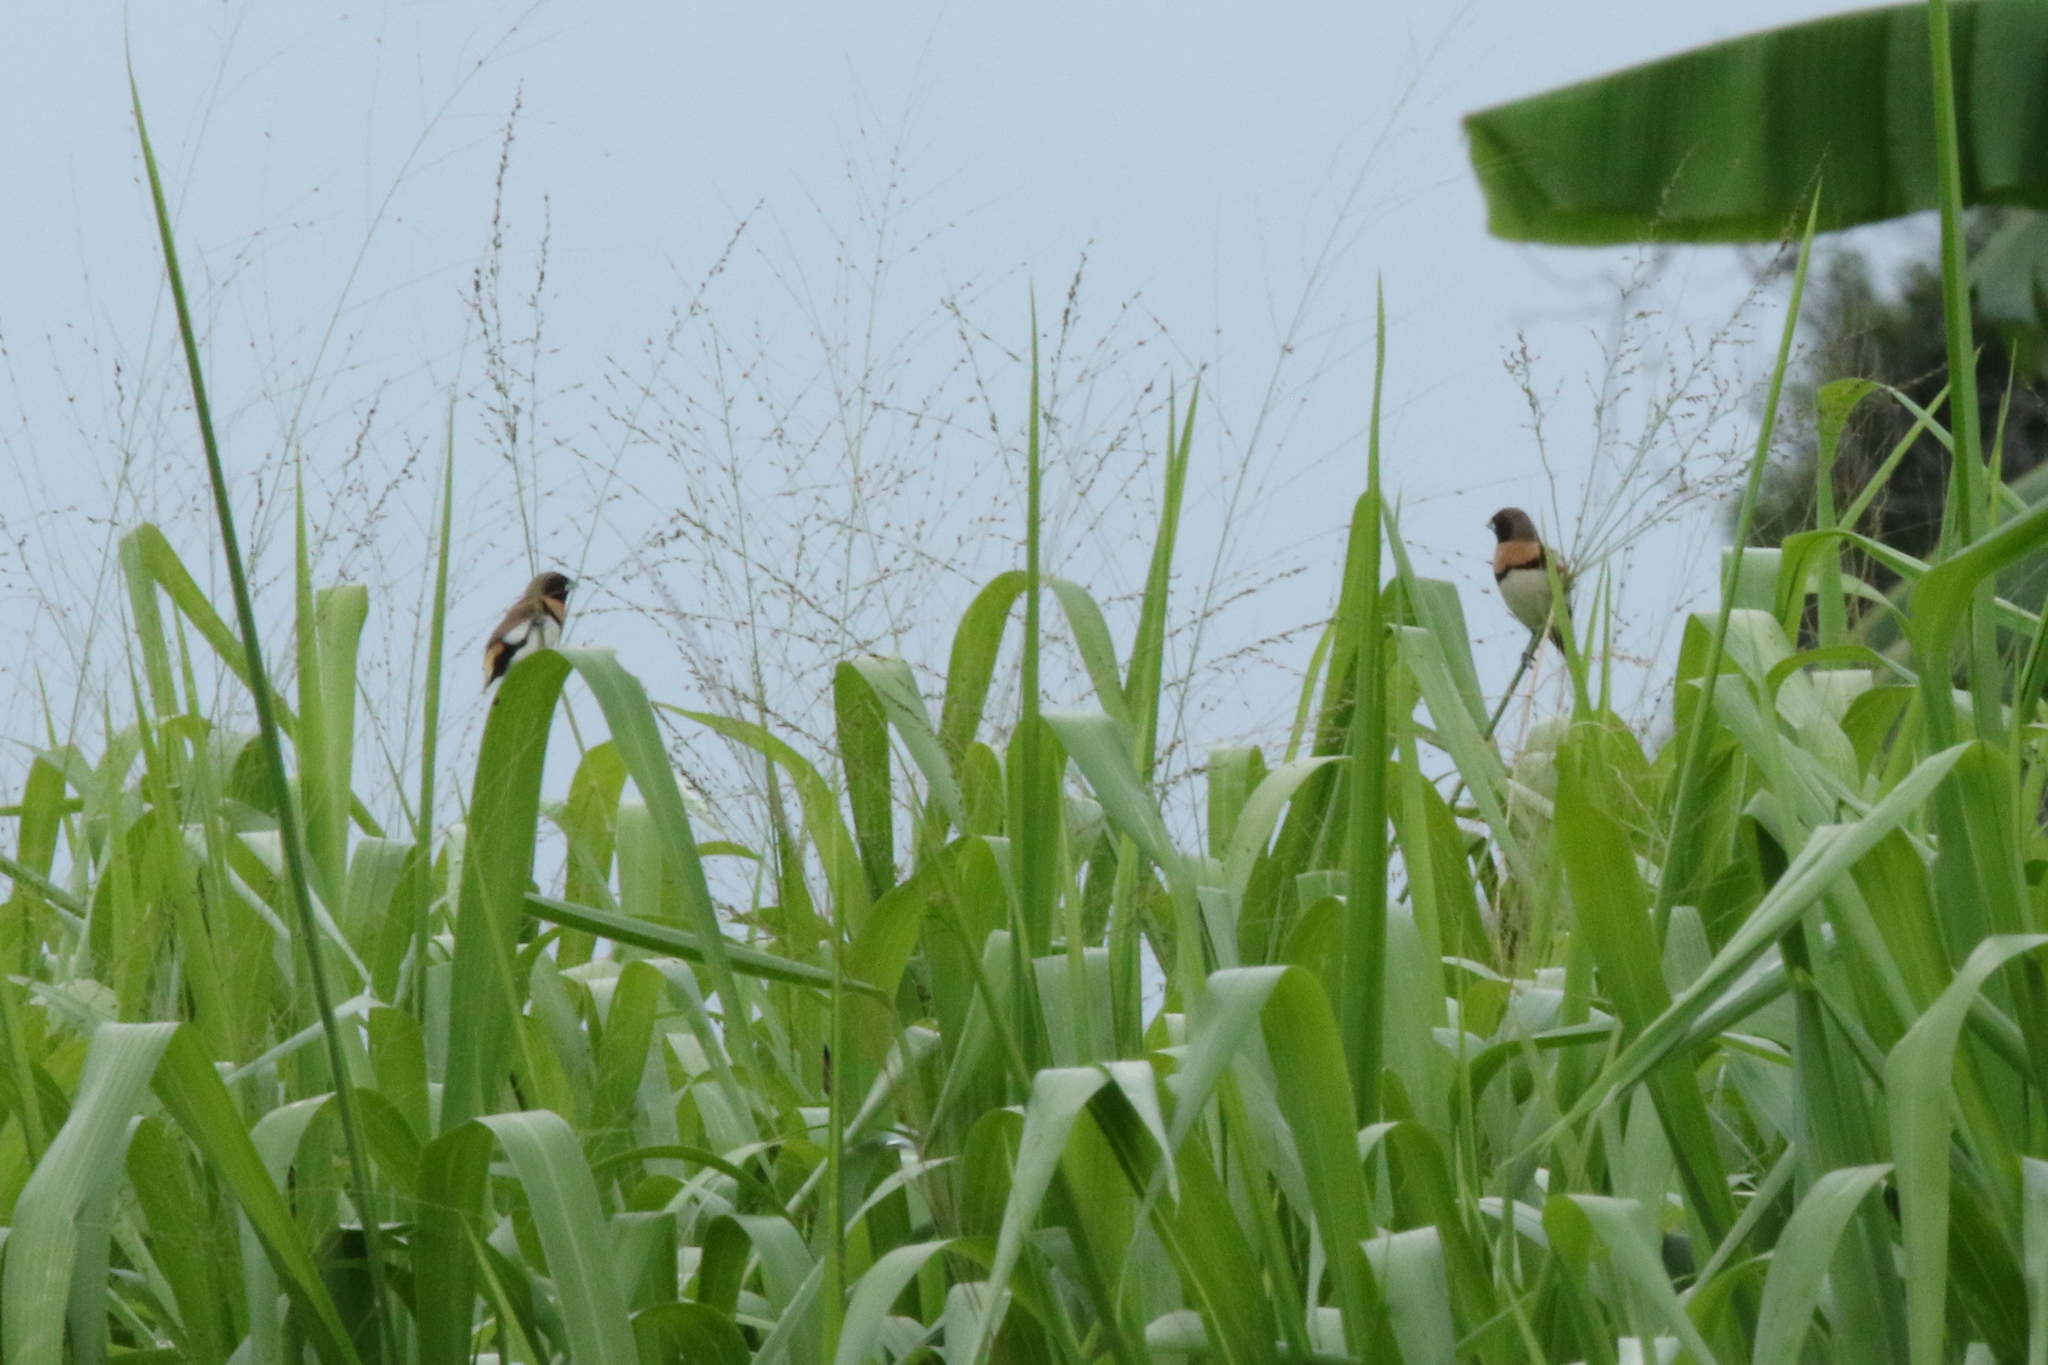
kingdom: Animalia
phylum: Chordata
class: Aves
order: Passeriformes
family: Estrildidae
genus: Lonchura
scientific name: Lonchura castaneothorax
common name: Chestnut-breasted mannikin
